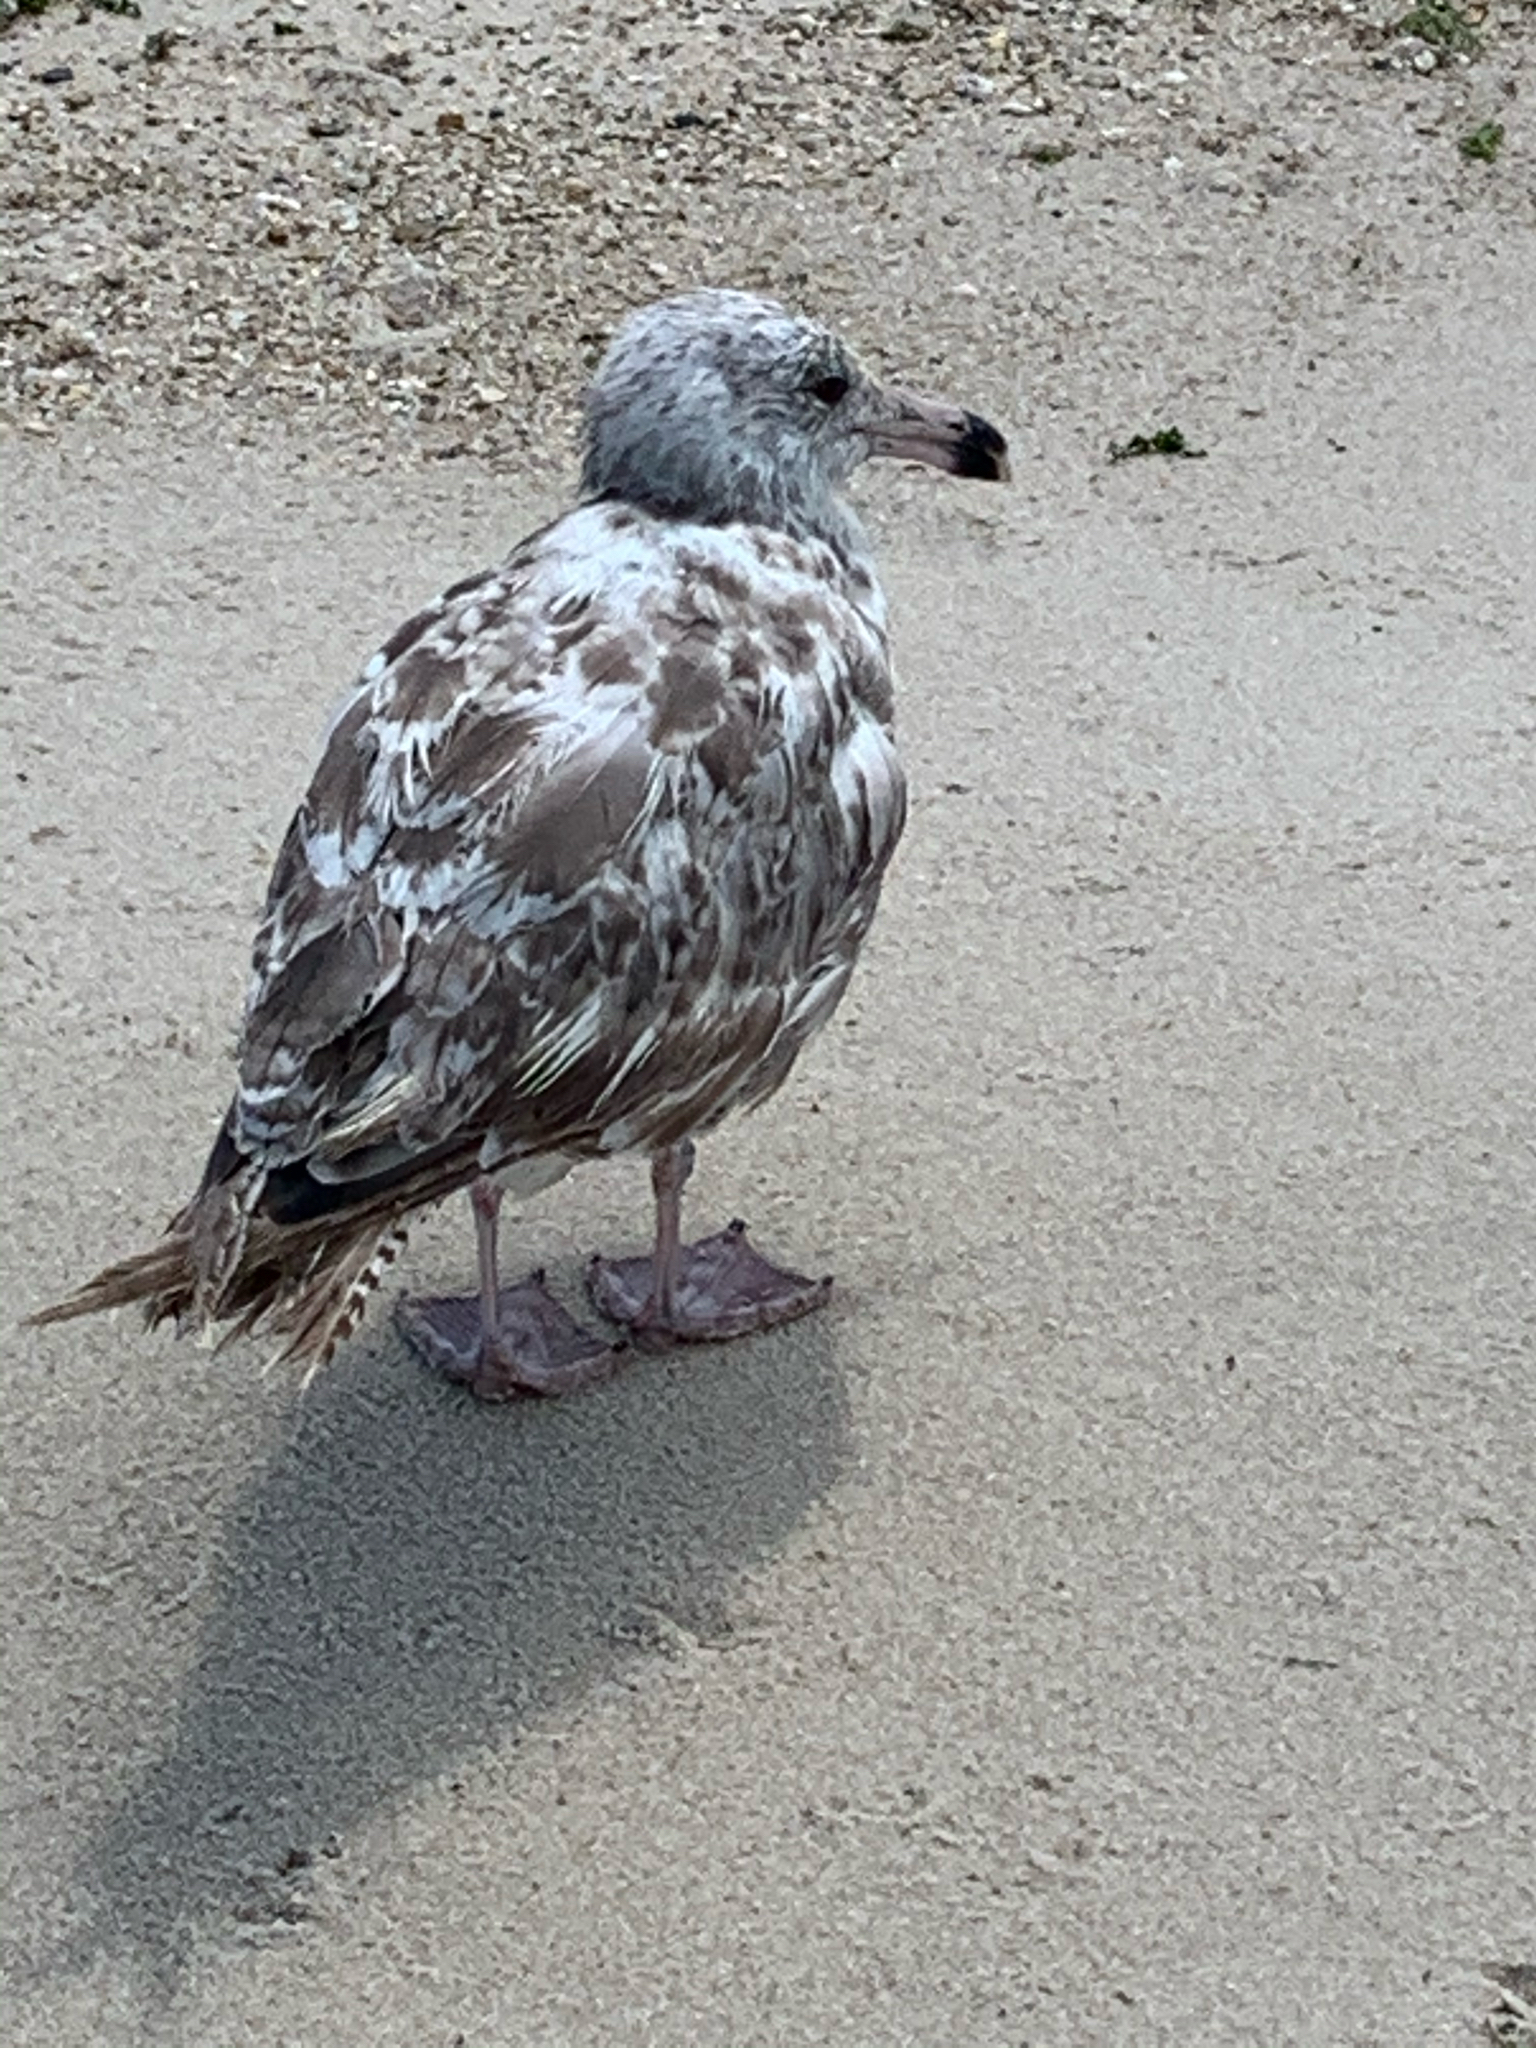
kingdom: Animalia
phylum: Chordata
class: Aves
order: Charadriiformes
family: Laridae
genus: Larus
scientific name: Larus argentatus
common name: Herring gull
